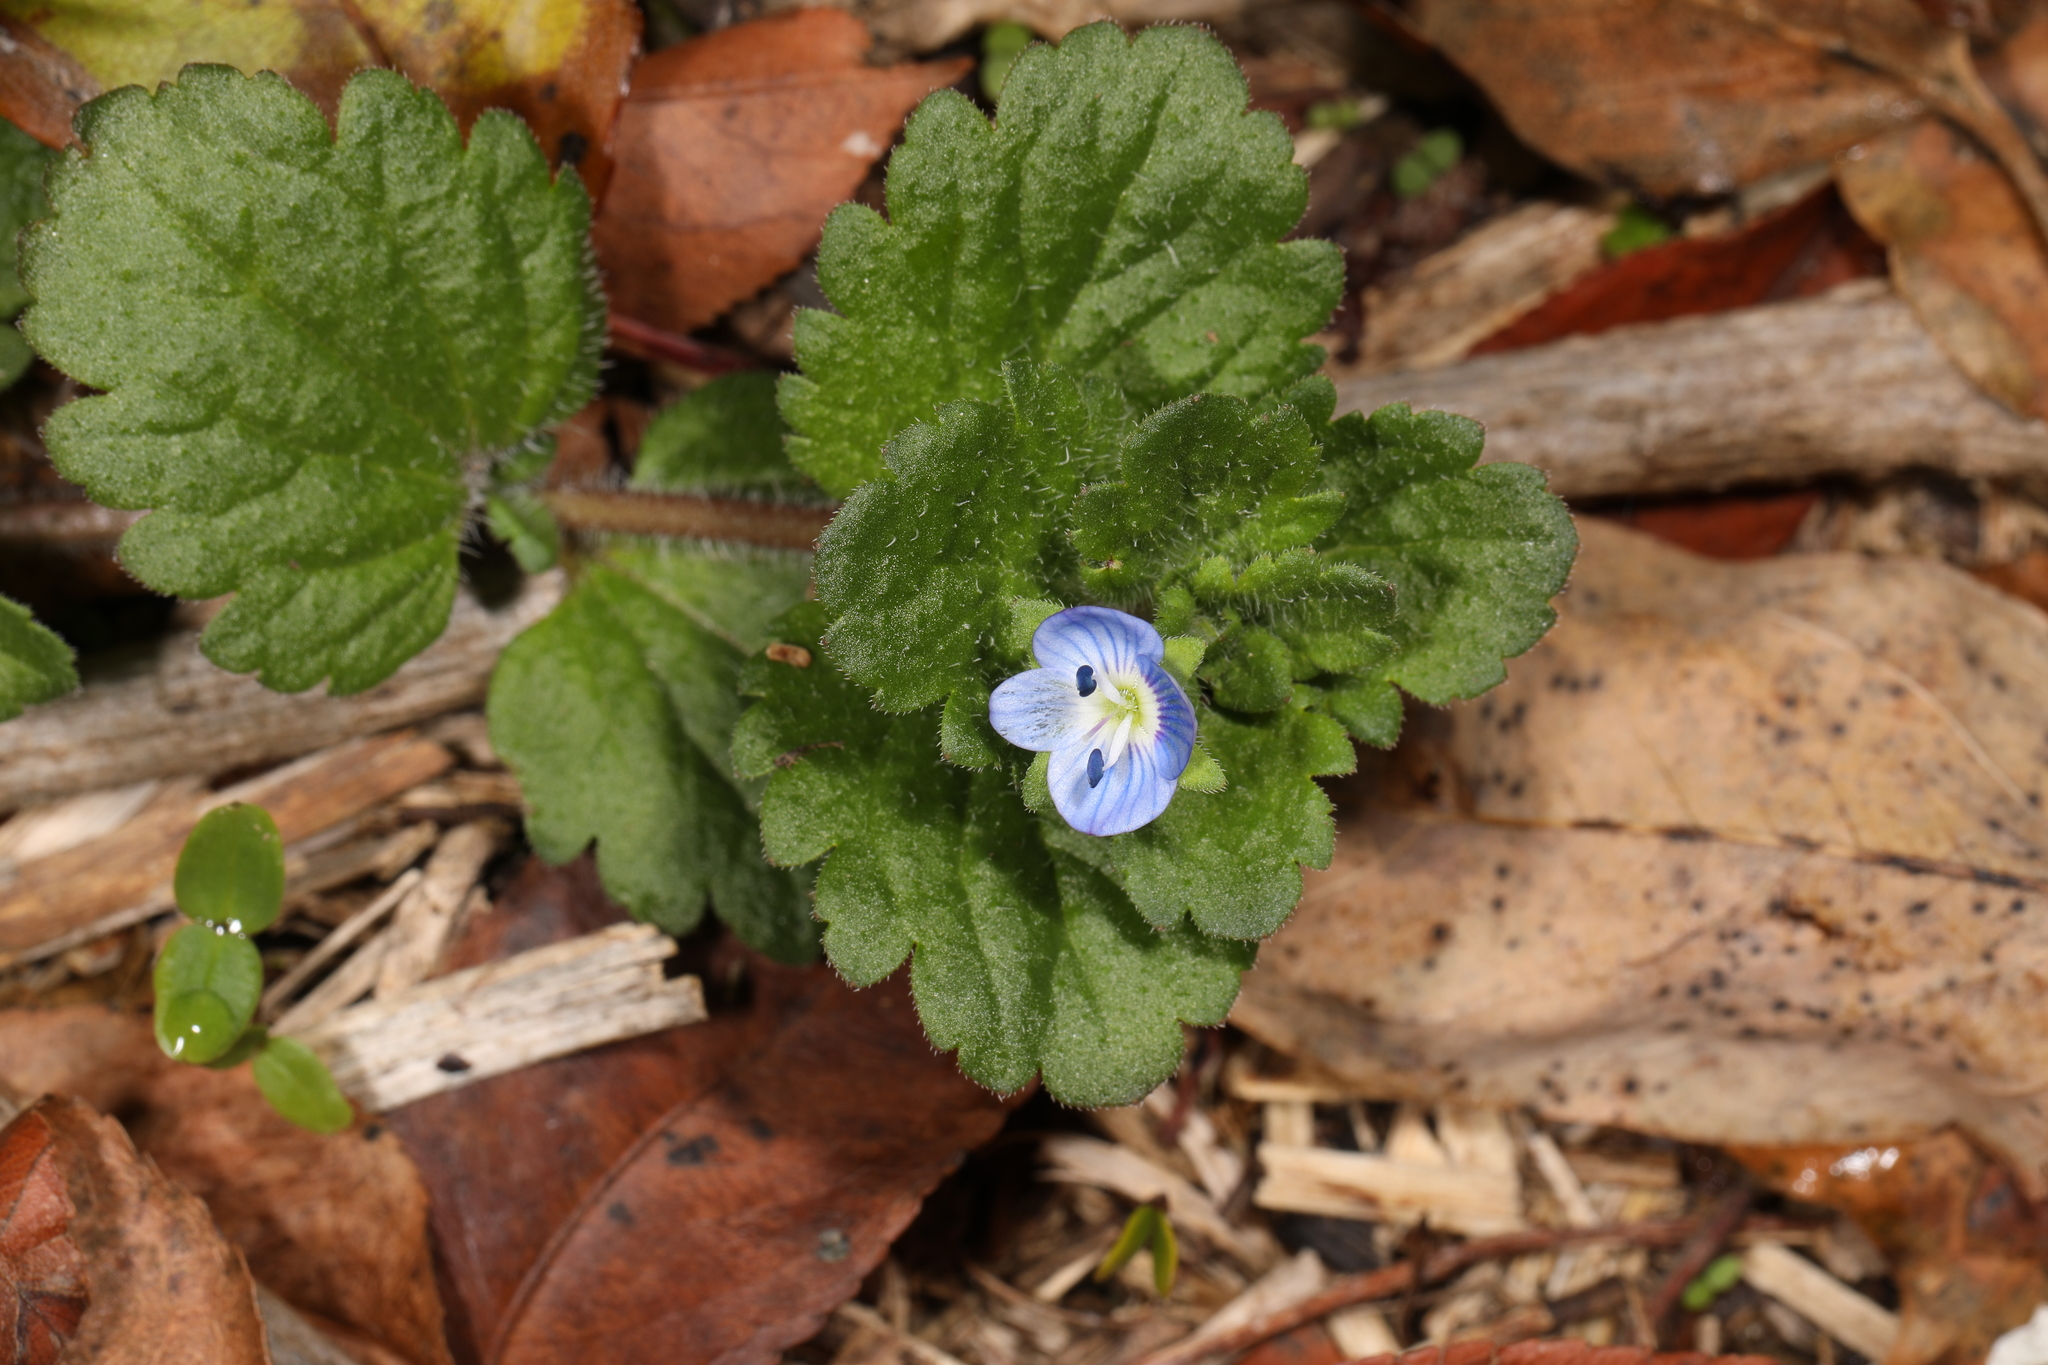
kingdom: Plantae
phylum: Tracheophyta
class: Magnoliopsida
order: Lamiales
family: Plantaginaceae
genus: Veronica
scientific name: Veronica persica
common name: Common field-speedwell
